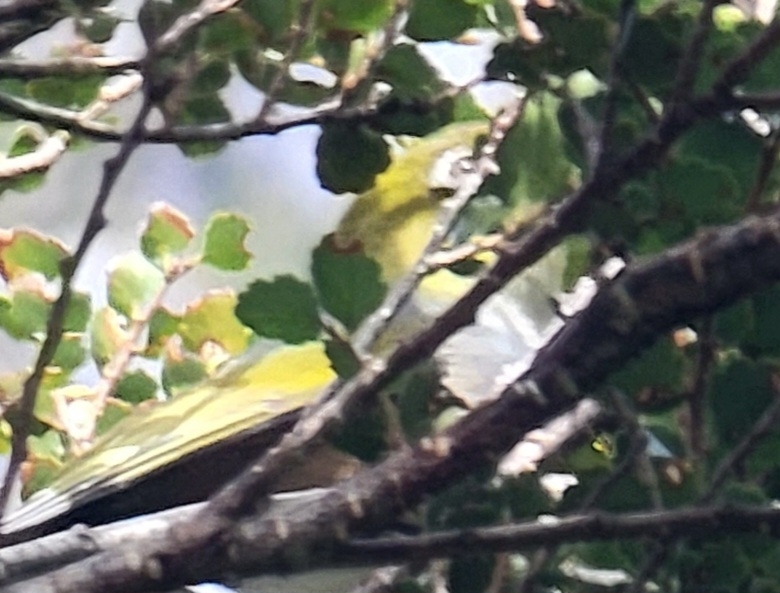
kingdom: Animalia
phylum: Chordata
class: Aves
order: Passeriformes
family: Zosteropidae
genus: Zosterops
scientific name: Zosterops lateralis
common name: Silvereye
